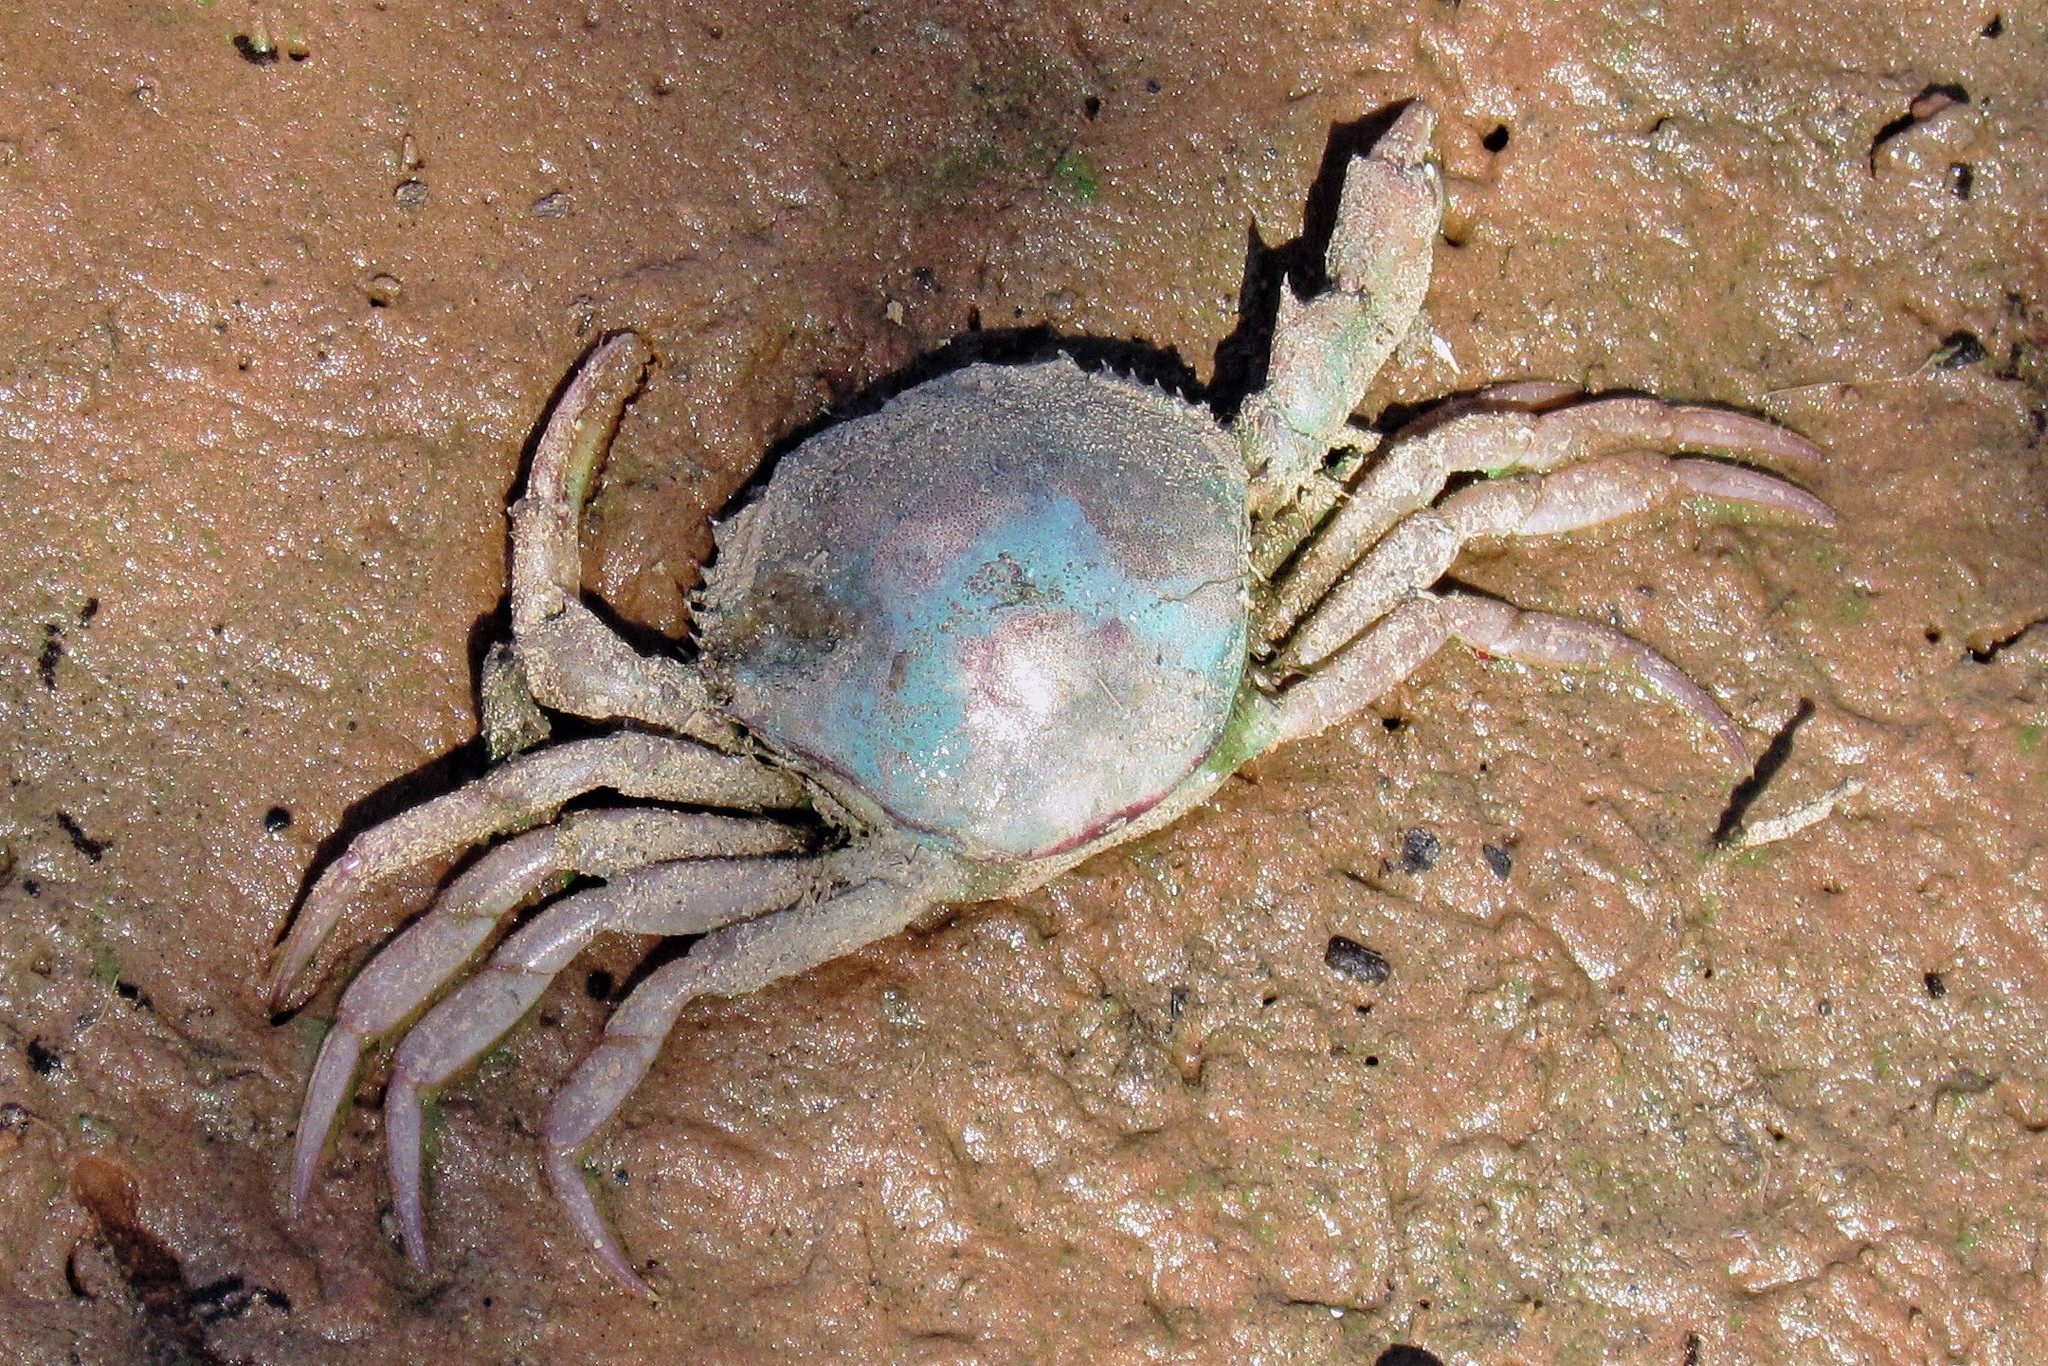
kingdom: Animalia
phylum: Arthropoda
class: Malacostraca
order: Decapoda
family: Trichodactylidae
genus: Dilocarcinus
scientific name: Dilocarcinus pagei
